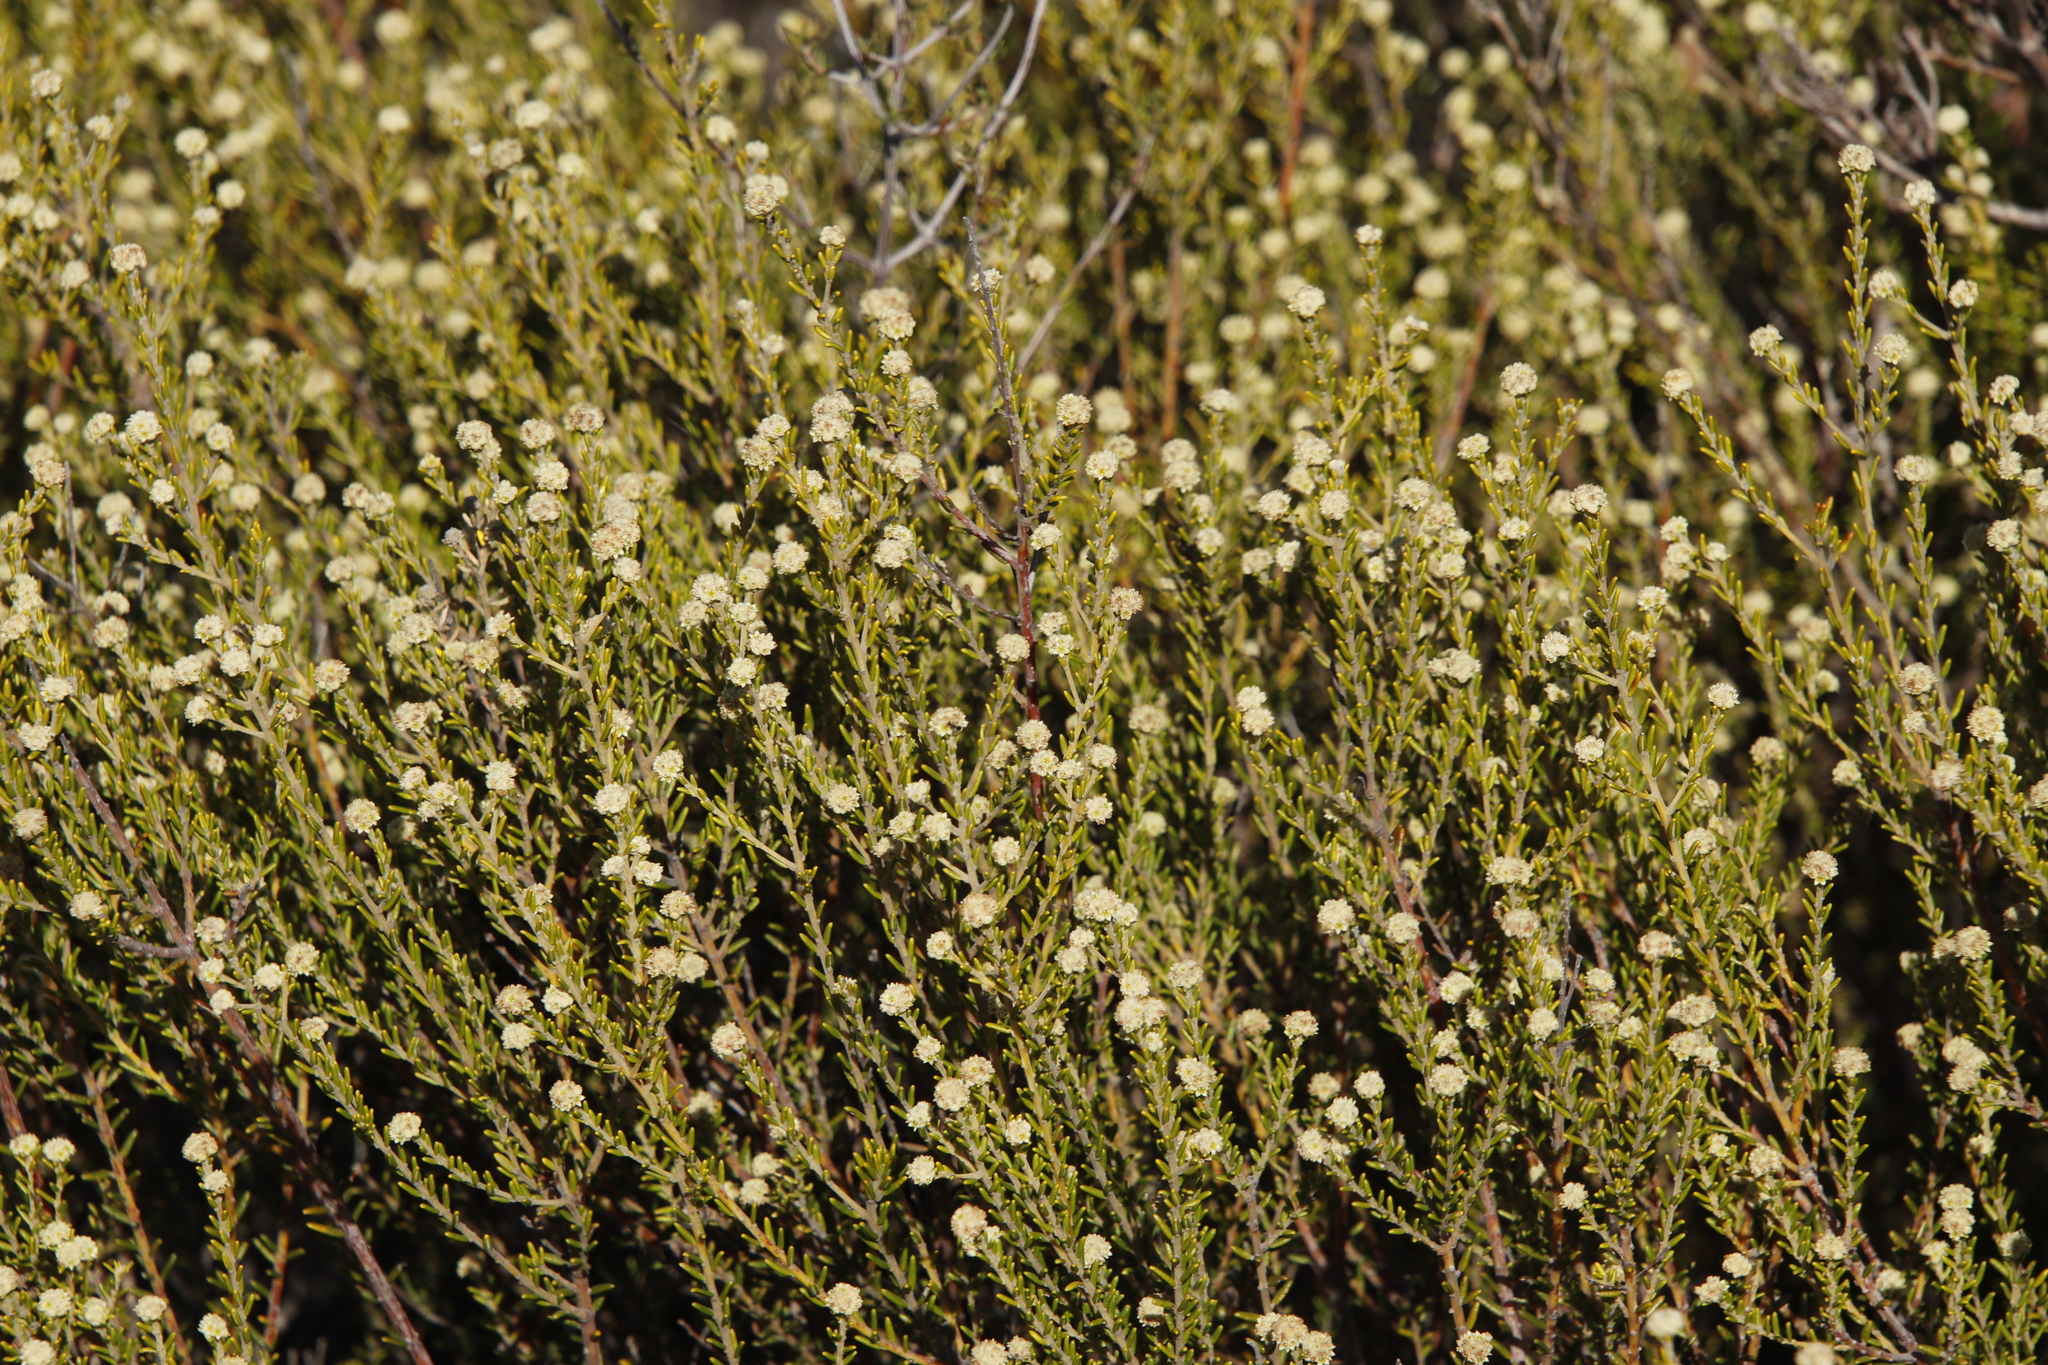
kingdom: Plantae
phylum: Tracheophyta
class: Magnoliopsida
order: Rosales
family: Rhamnaceae
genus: Phylica
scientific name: Phylica cephalantha
